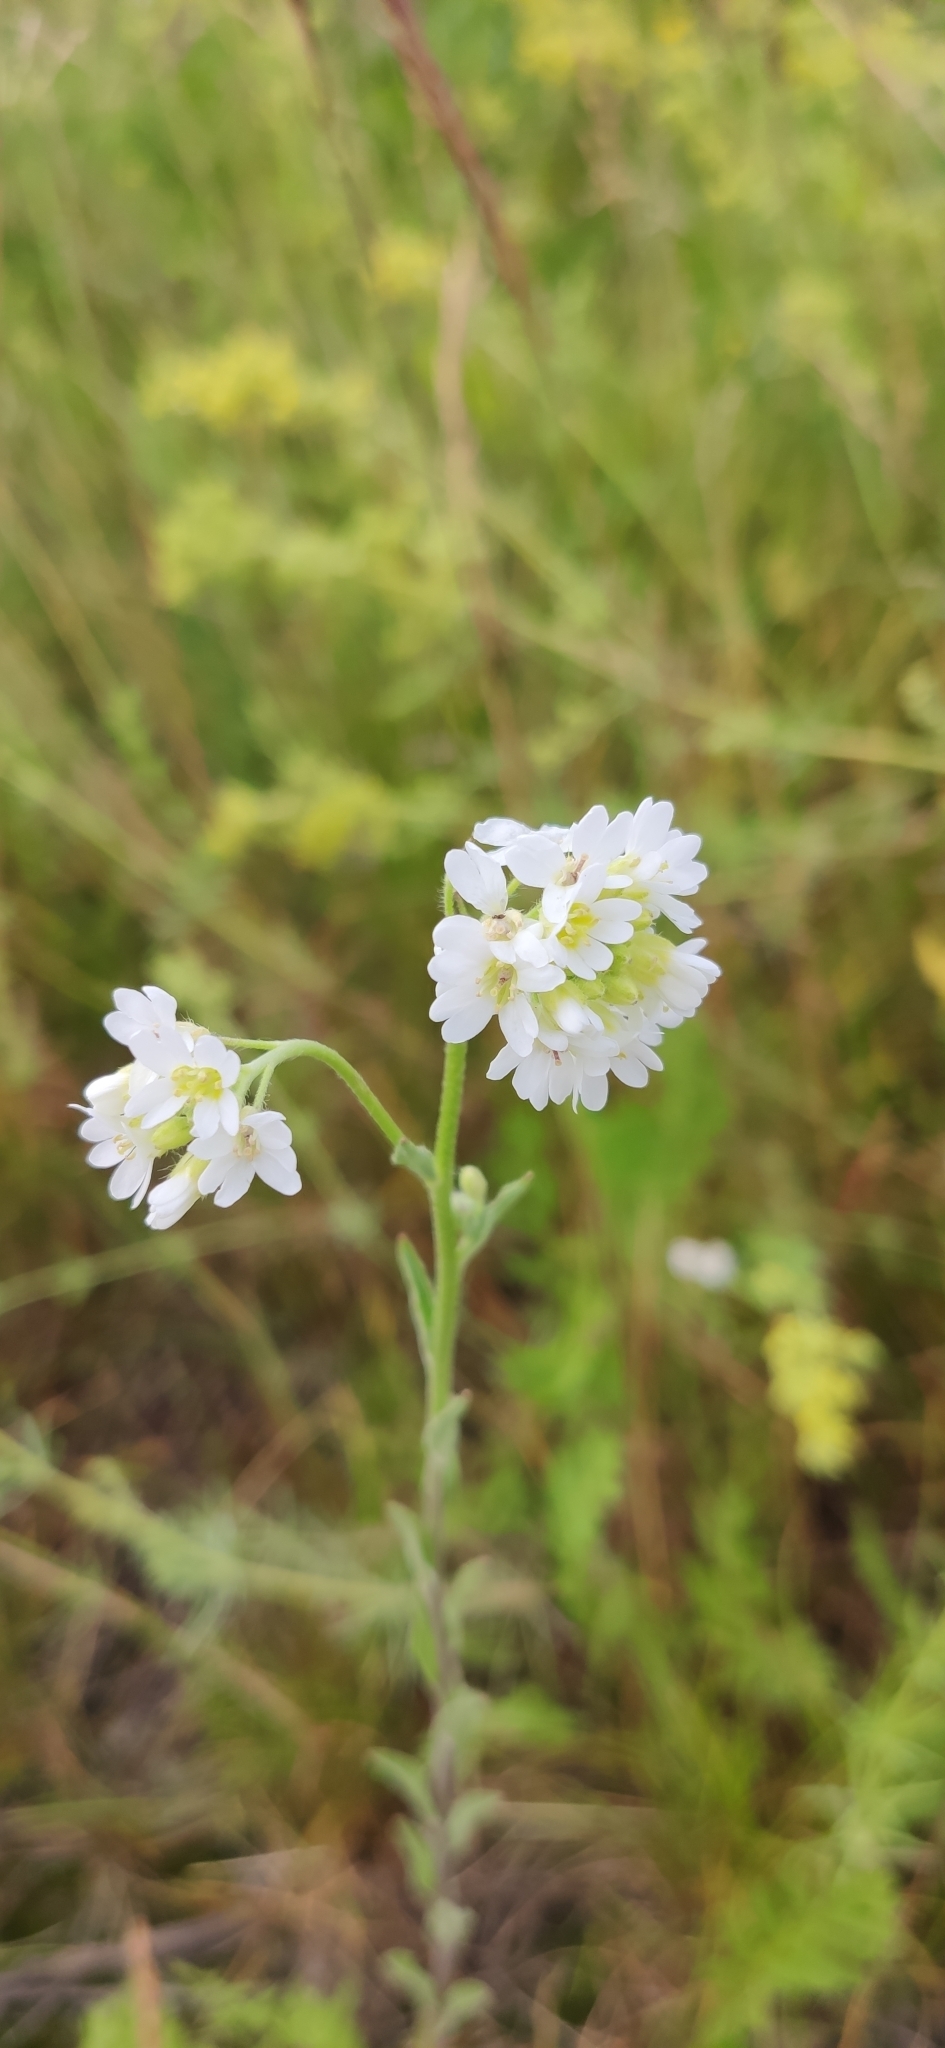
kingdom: Plantae
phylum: Tracheophyta
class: Magnoliopsida
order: Brassicales
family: Brassicaceae
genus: Berteroa
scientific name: Berteroa incana
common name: Hoary alison
